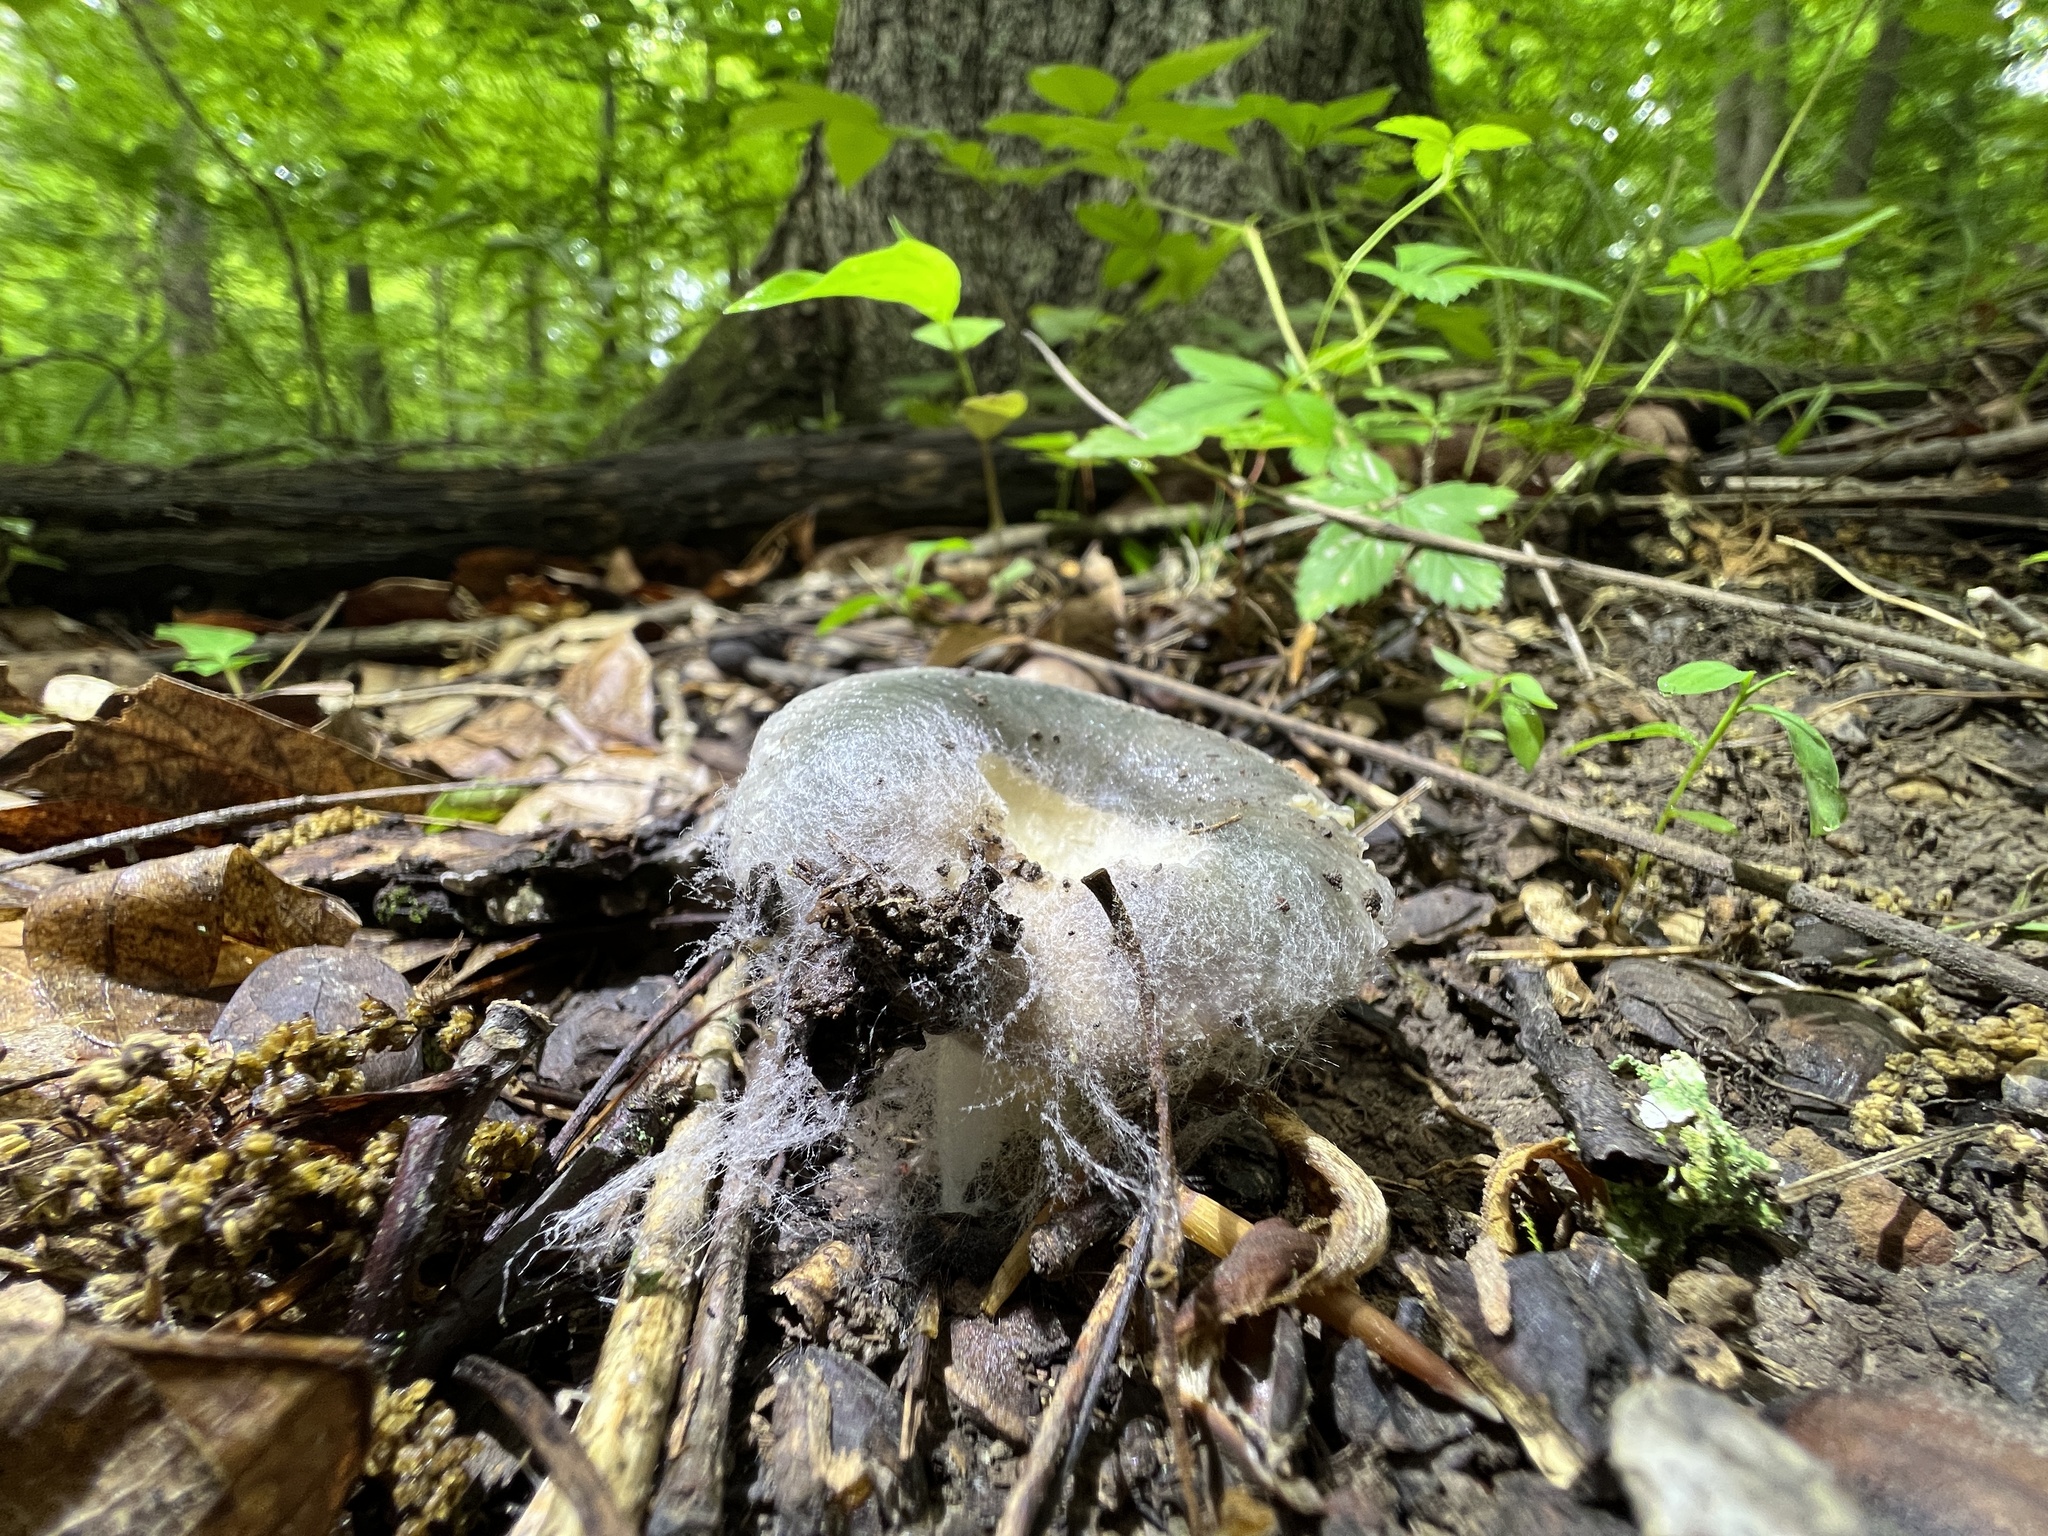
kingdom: Fungi
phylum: Basidiomycota
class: Agaricomycetes
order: Russulales
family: Russulaceae
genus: Russula
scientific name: Russula redolens
